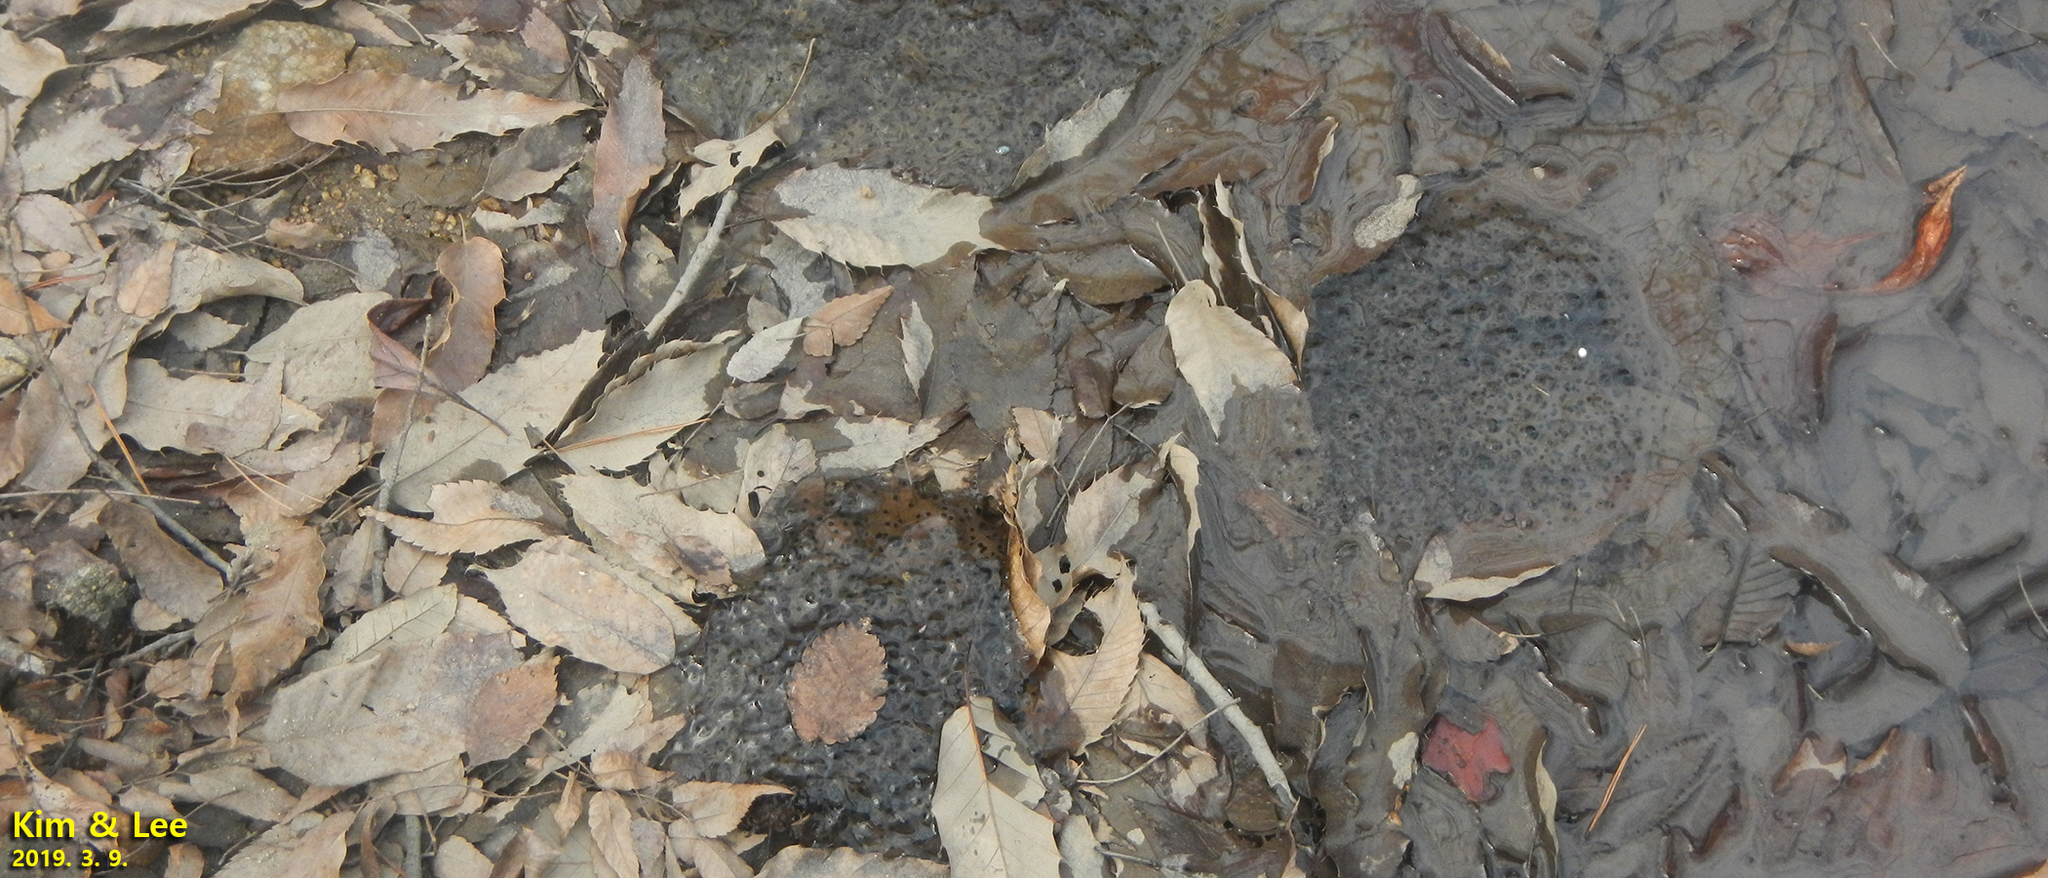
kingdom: Animalia
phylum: Chordata
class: Amphibia
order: Anura
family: Ranidae
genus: Rana
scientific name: Rana uenoi
